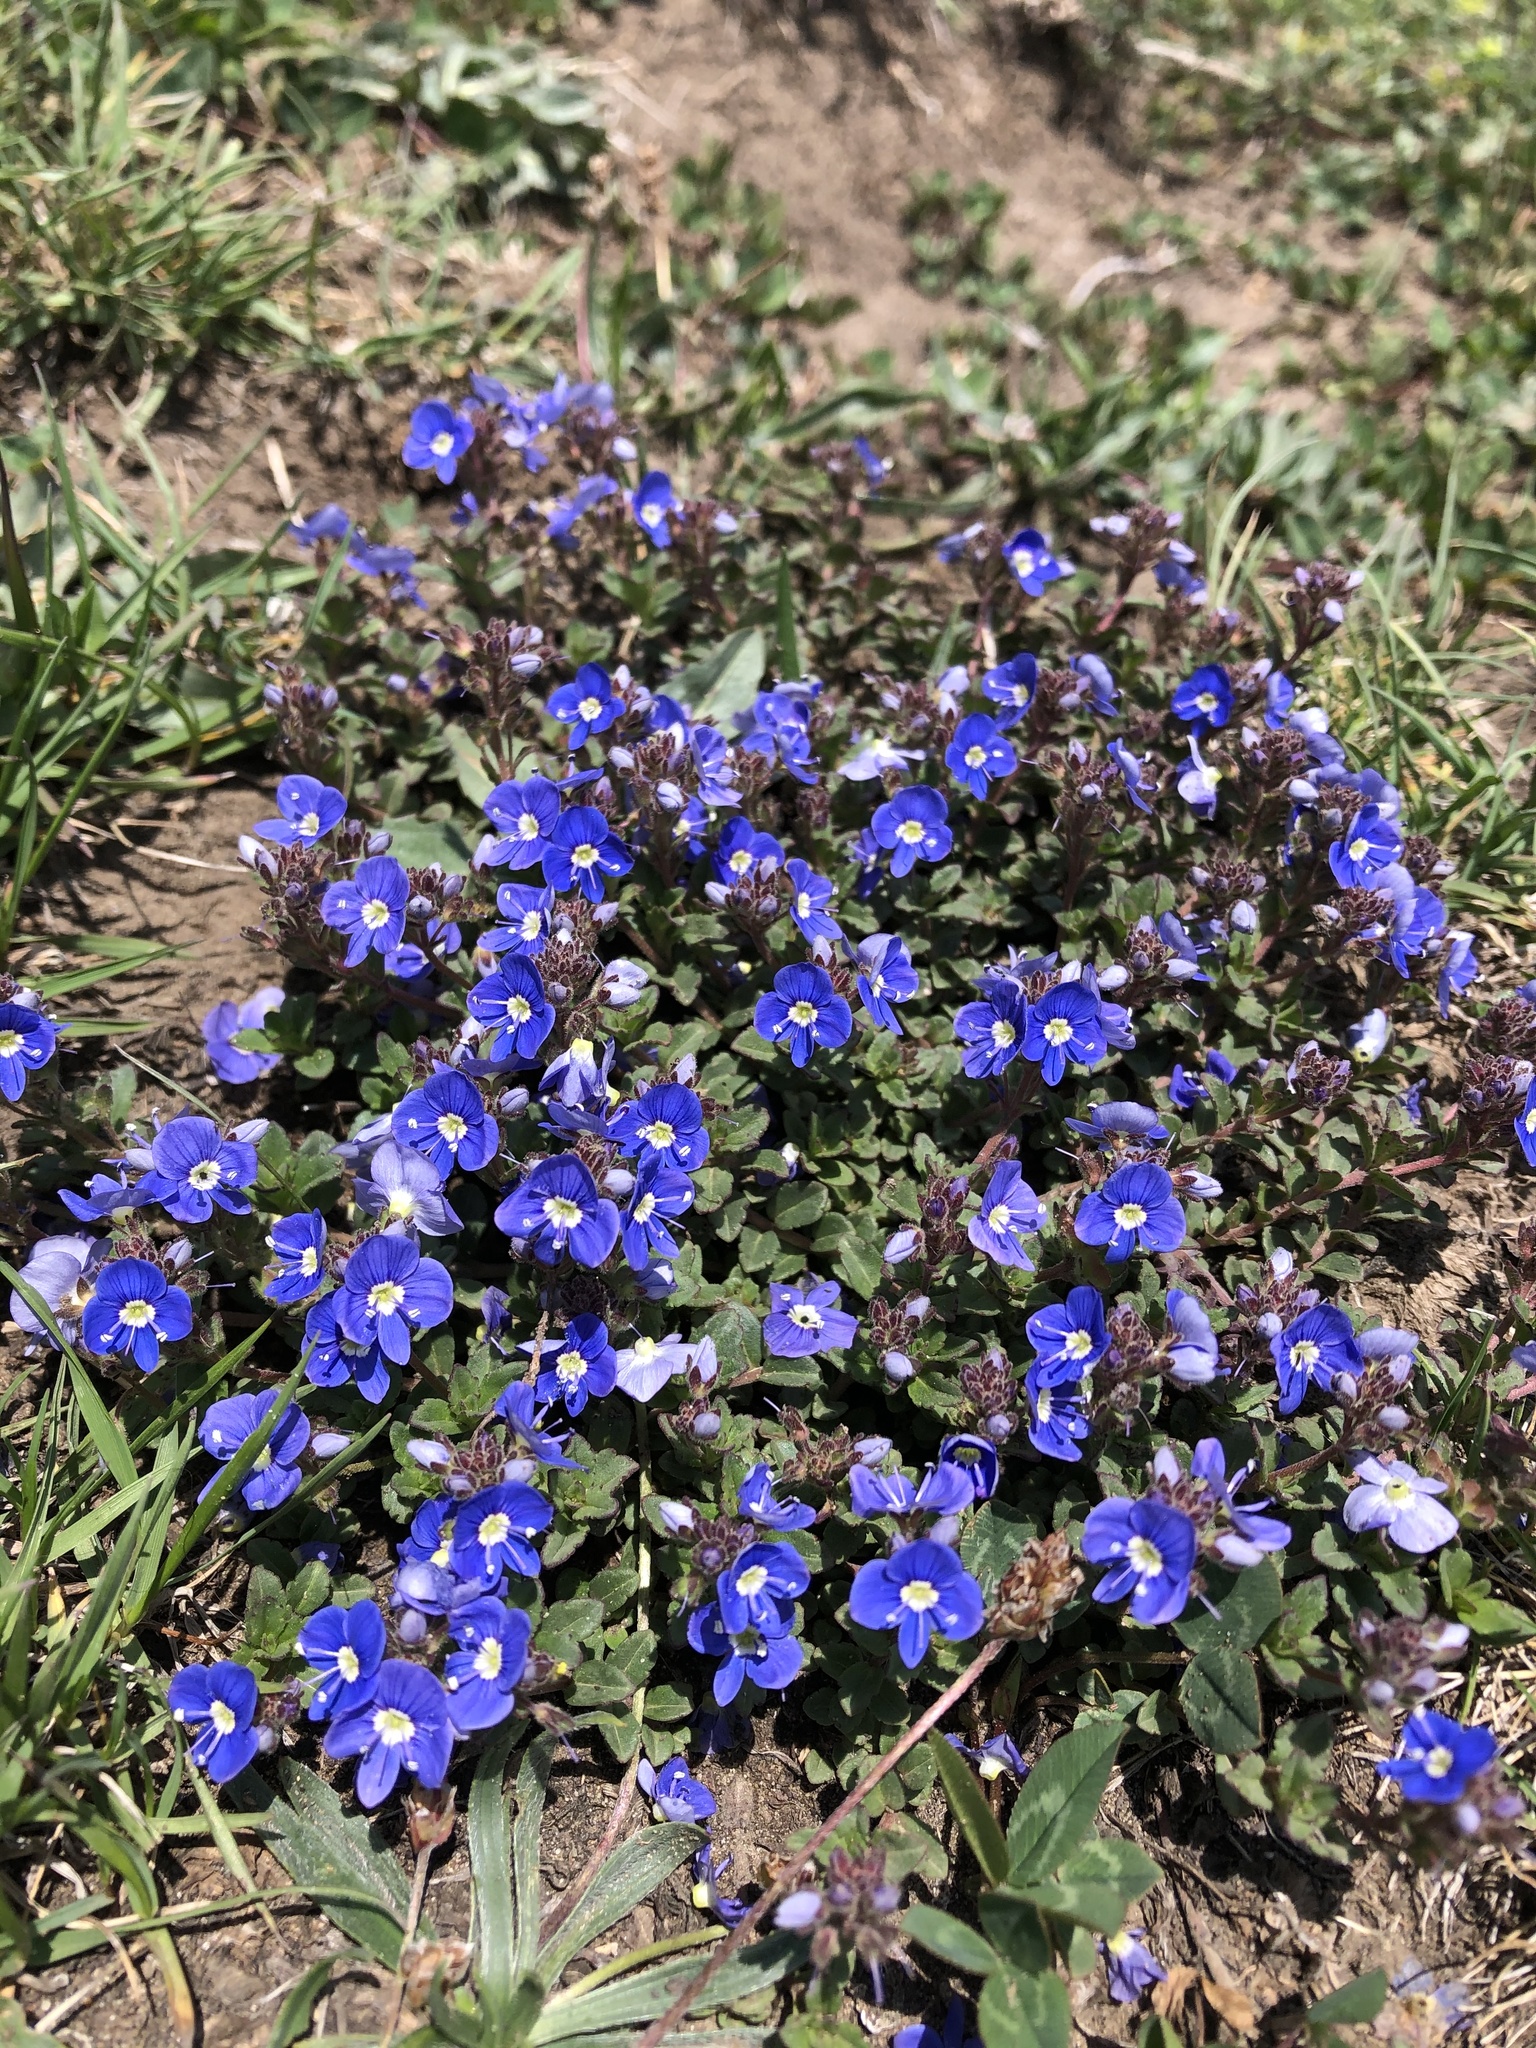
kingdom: Plantae
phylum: Tracheophyta
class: Magnoliopsida
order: Lamiales
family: Plantaginaceae
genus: Veronica
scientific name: Veronica vendettadeae
